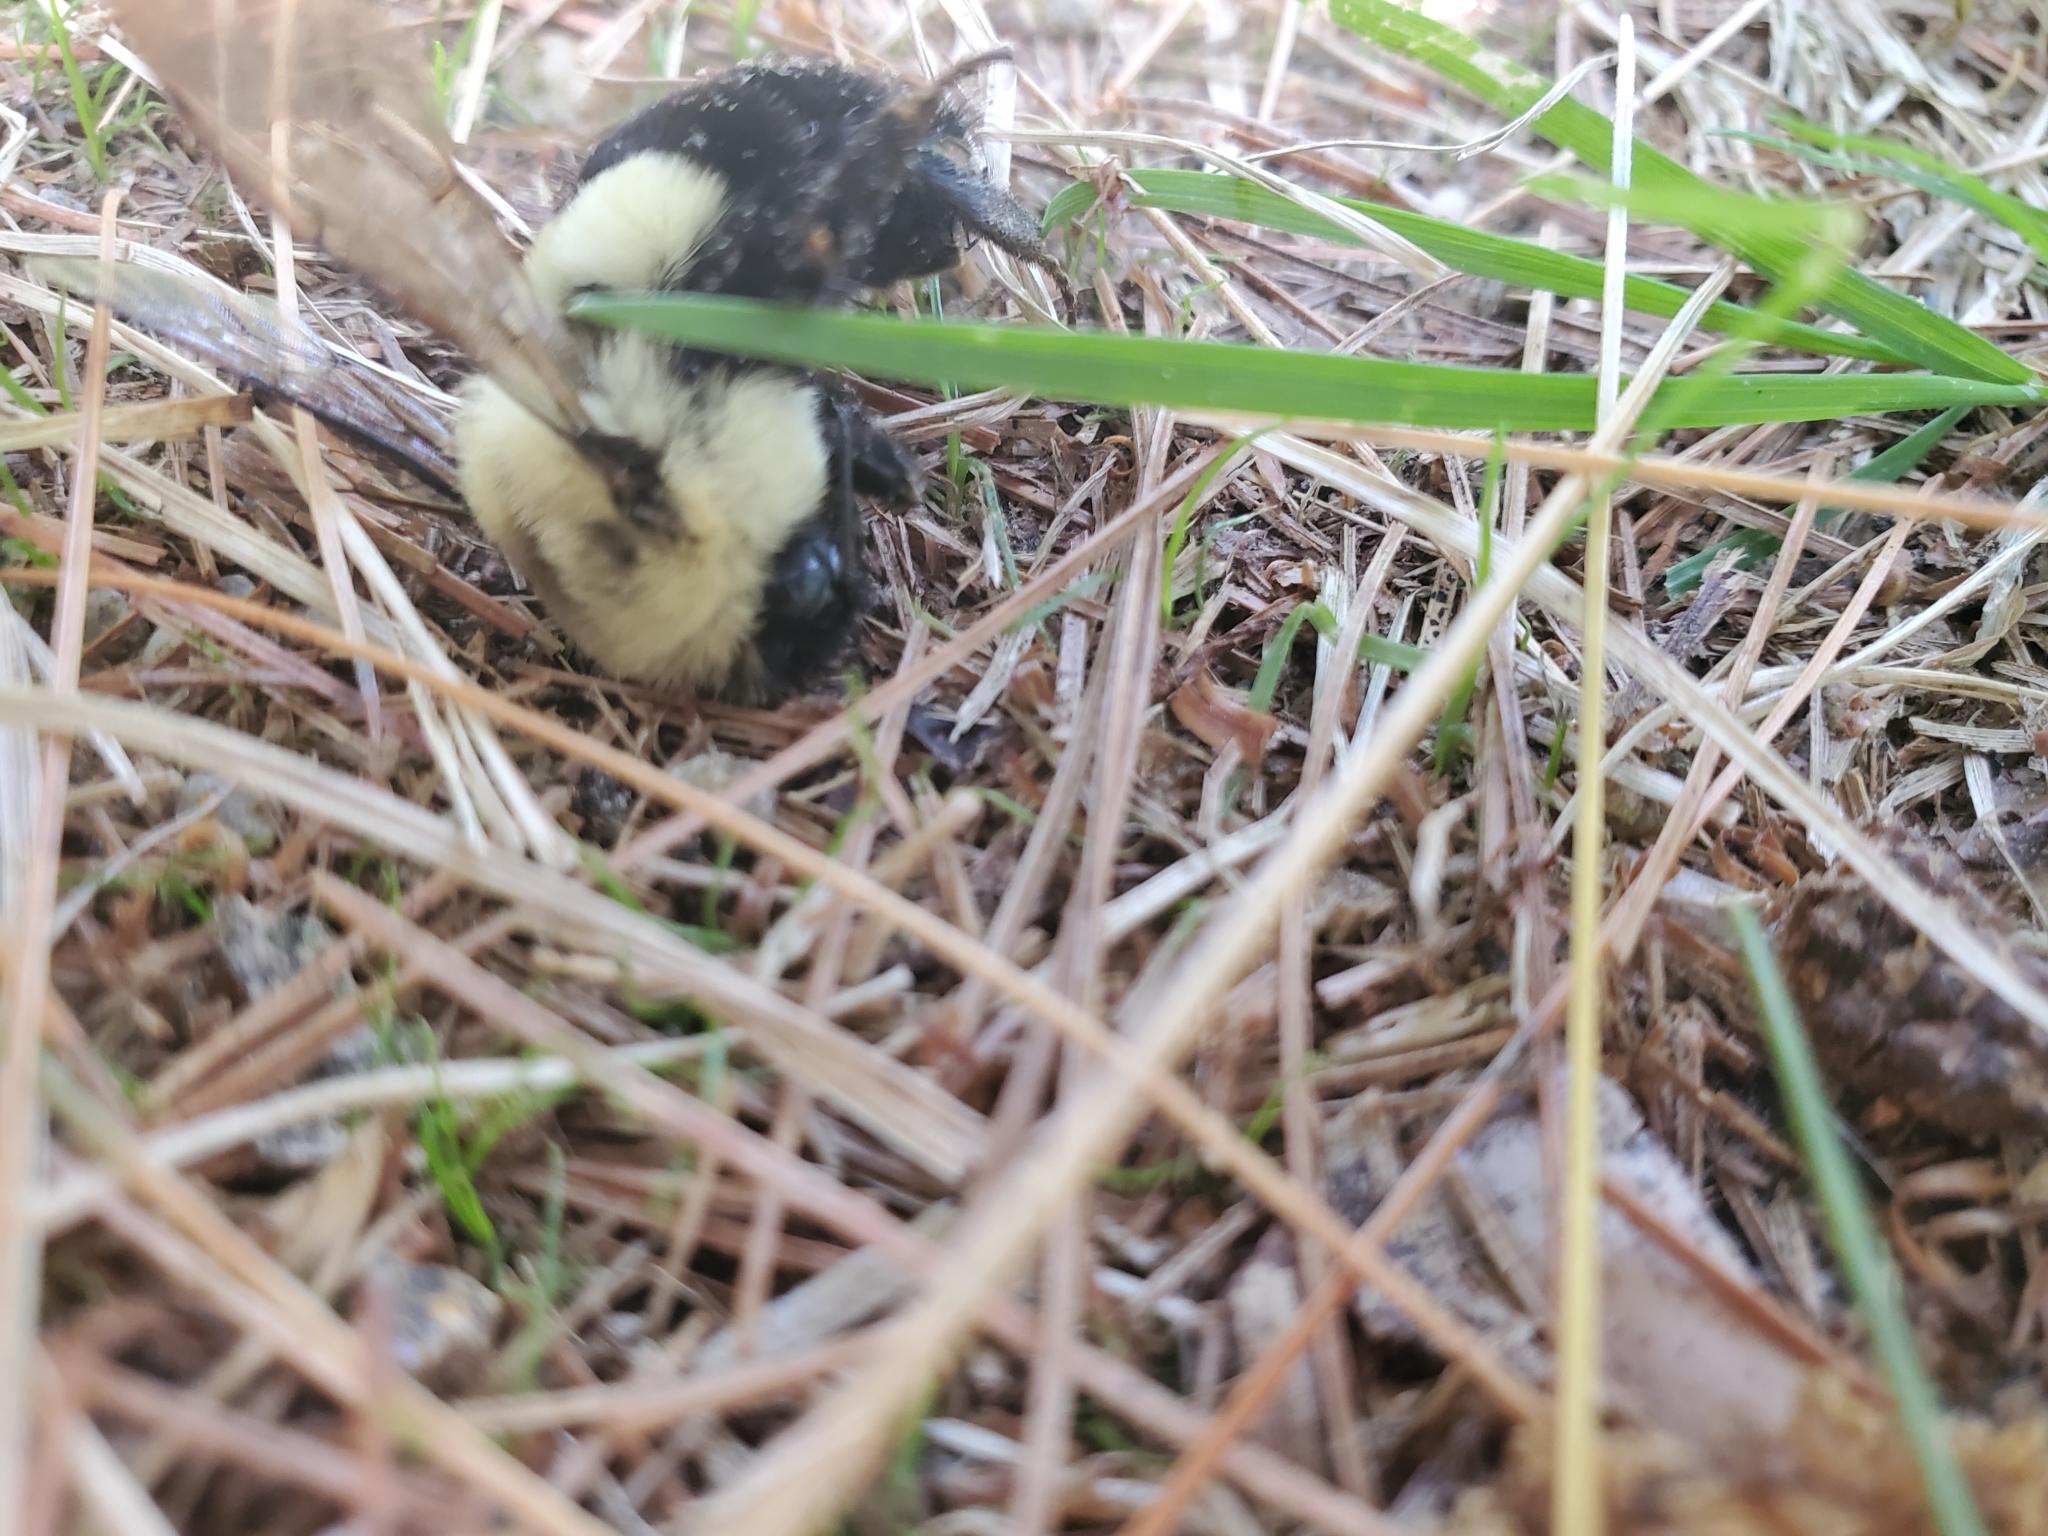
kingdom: Animalia
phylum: Arthropoda
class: Insecta
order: Hymenoptera
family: Apidae
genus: Bombus
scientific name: Bombus impatiens
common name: Common eastern bumble bee
